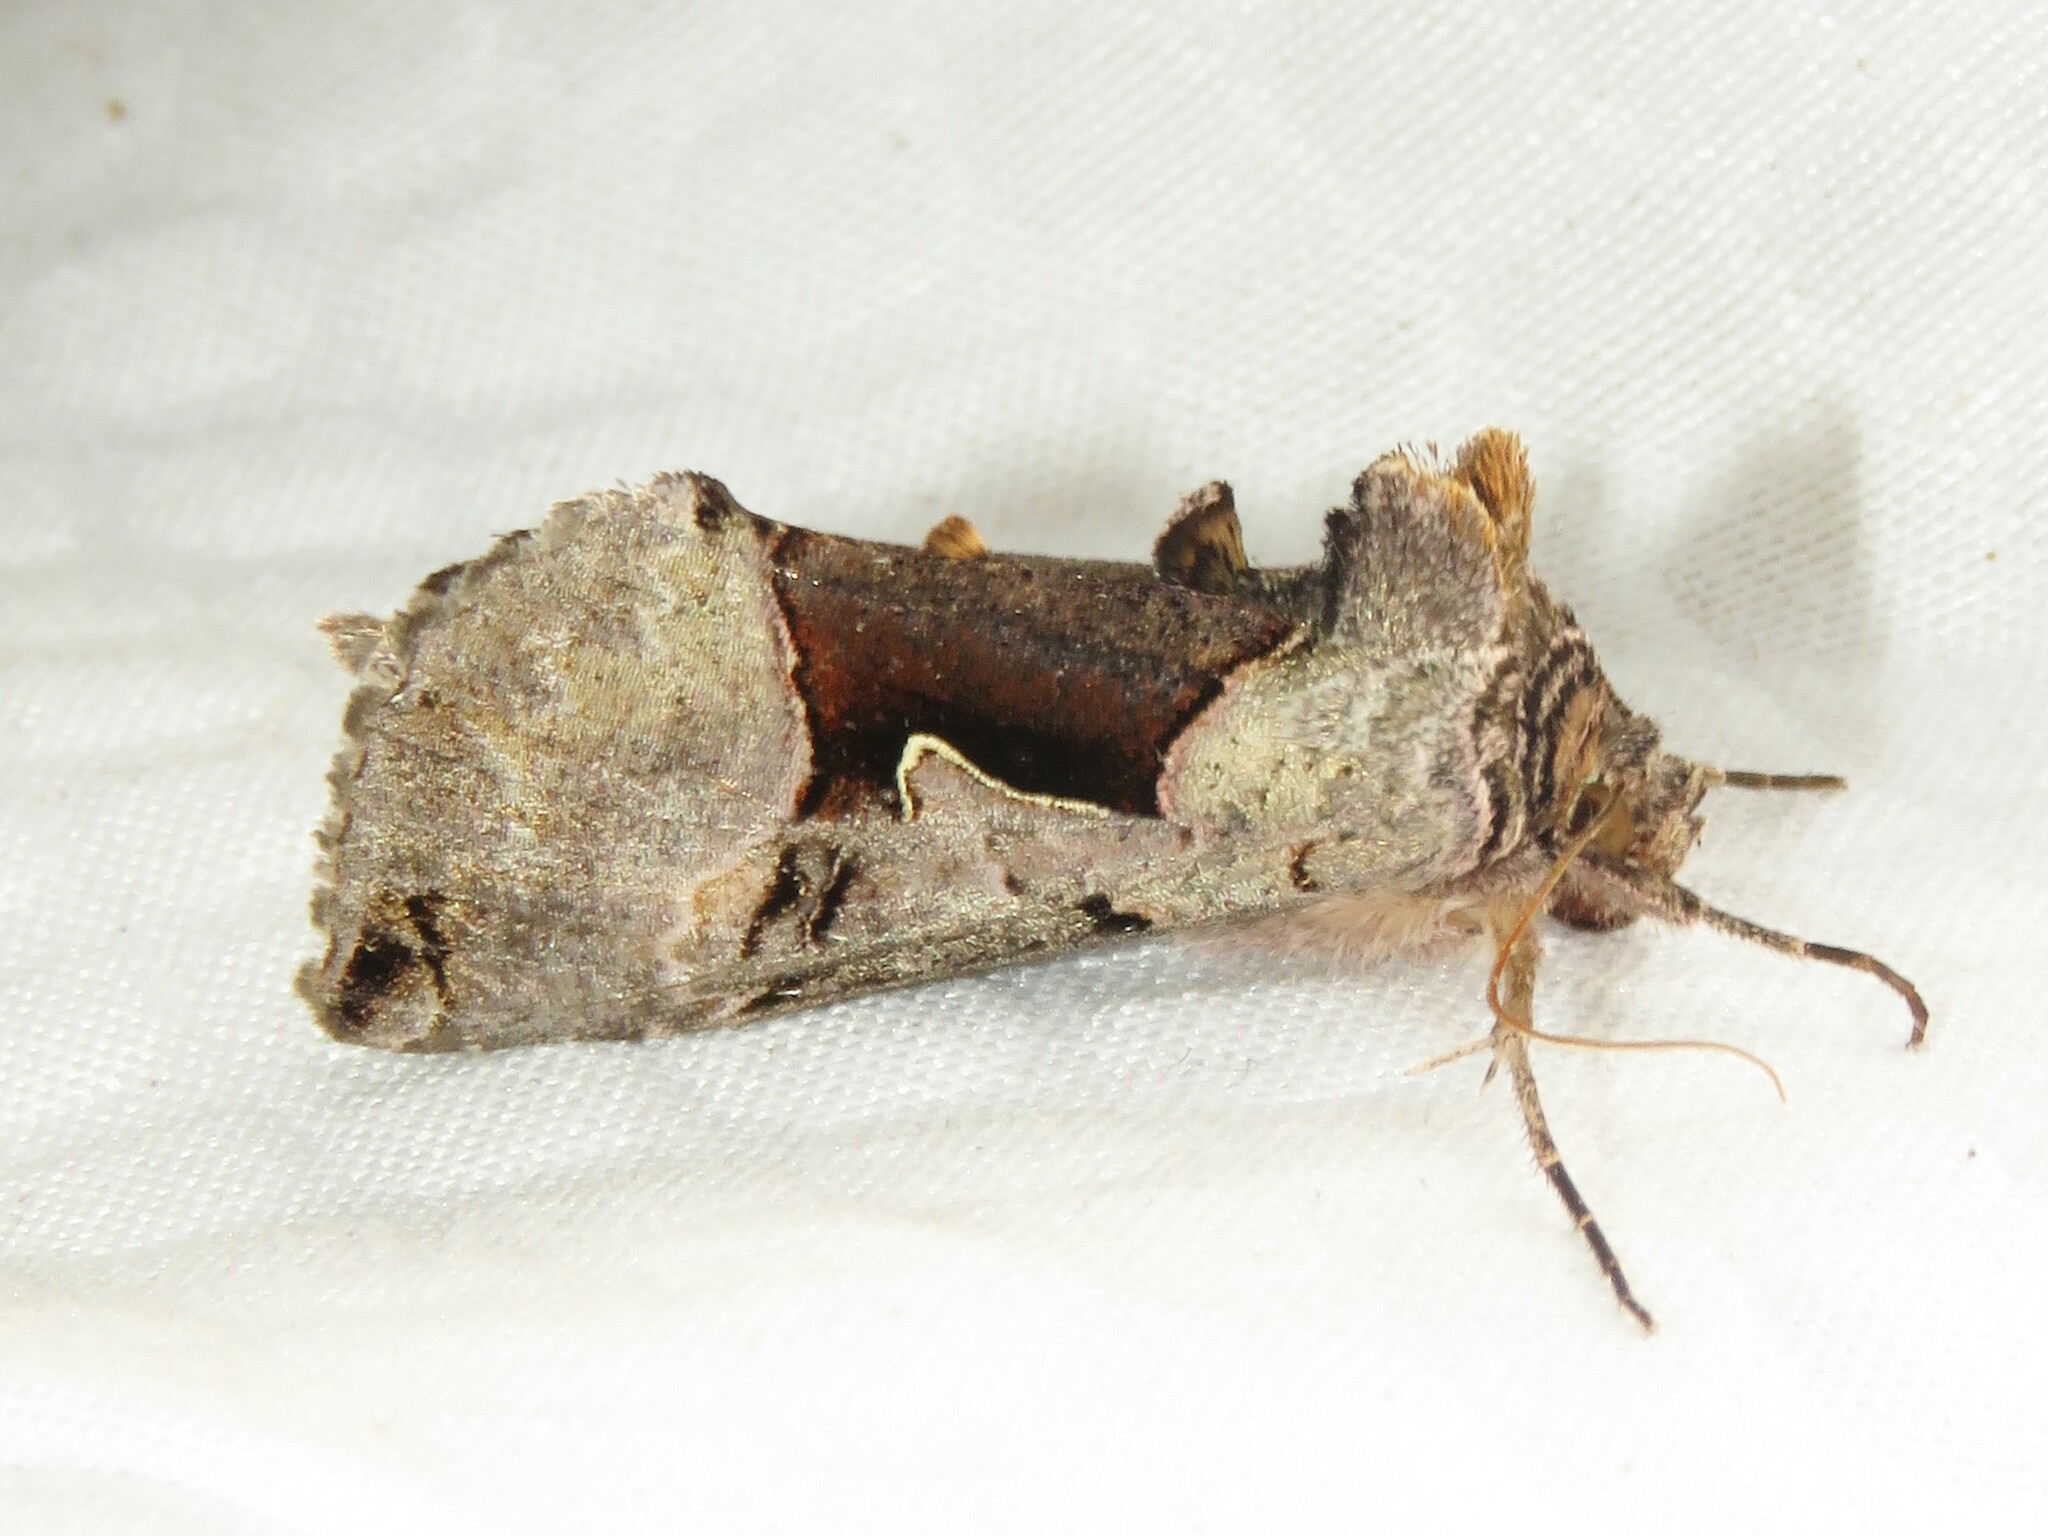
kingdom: Animalia
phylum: Arthropoda
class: Insecta
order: Lepidoptera
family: Noctuidae
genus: Autographa
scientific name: Autographa ampla
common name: Large looper moth
